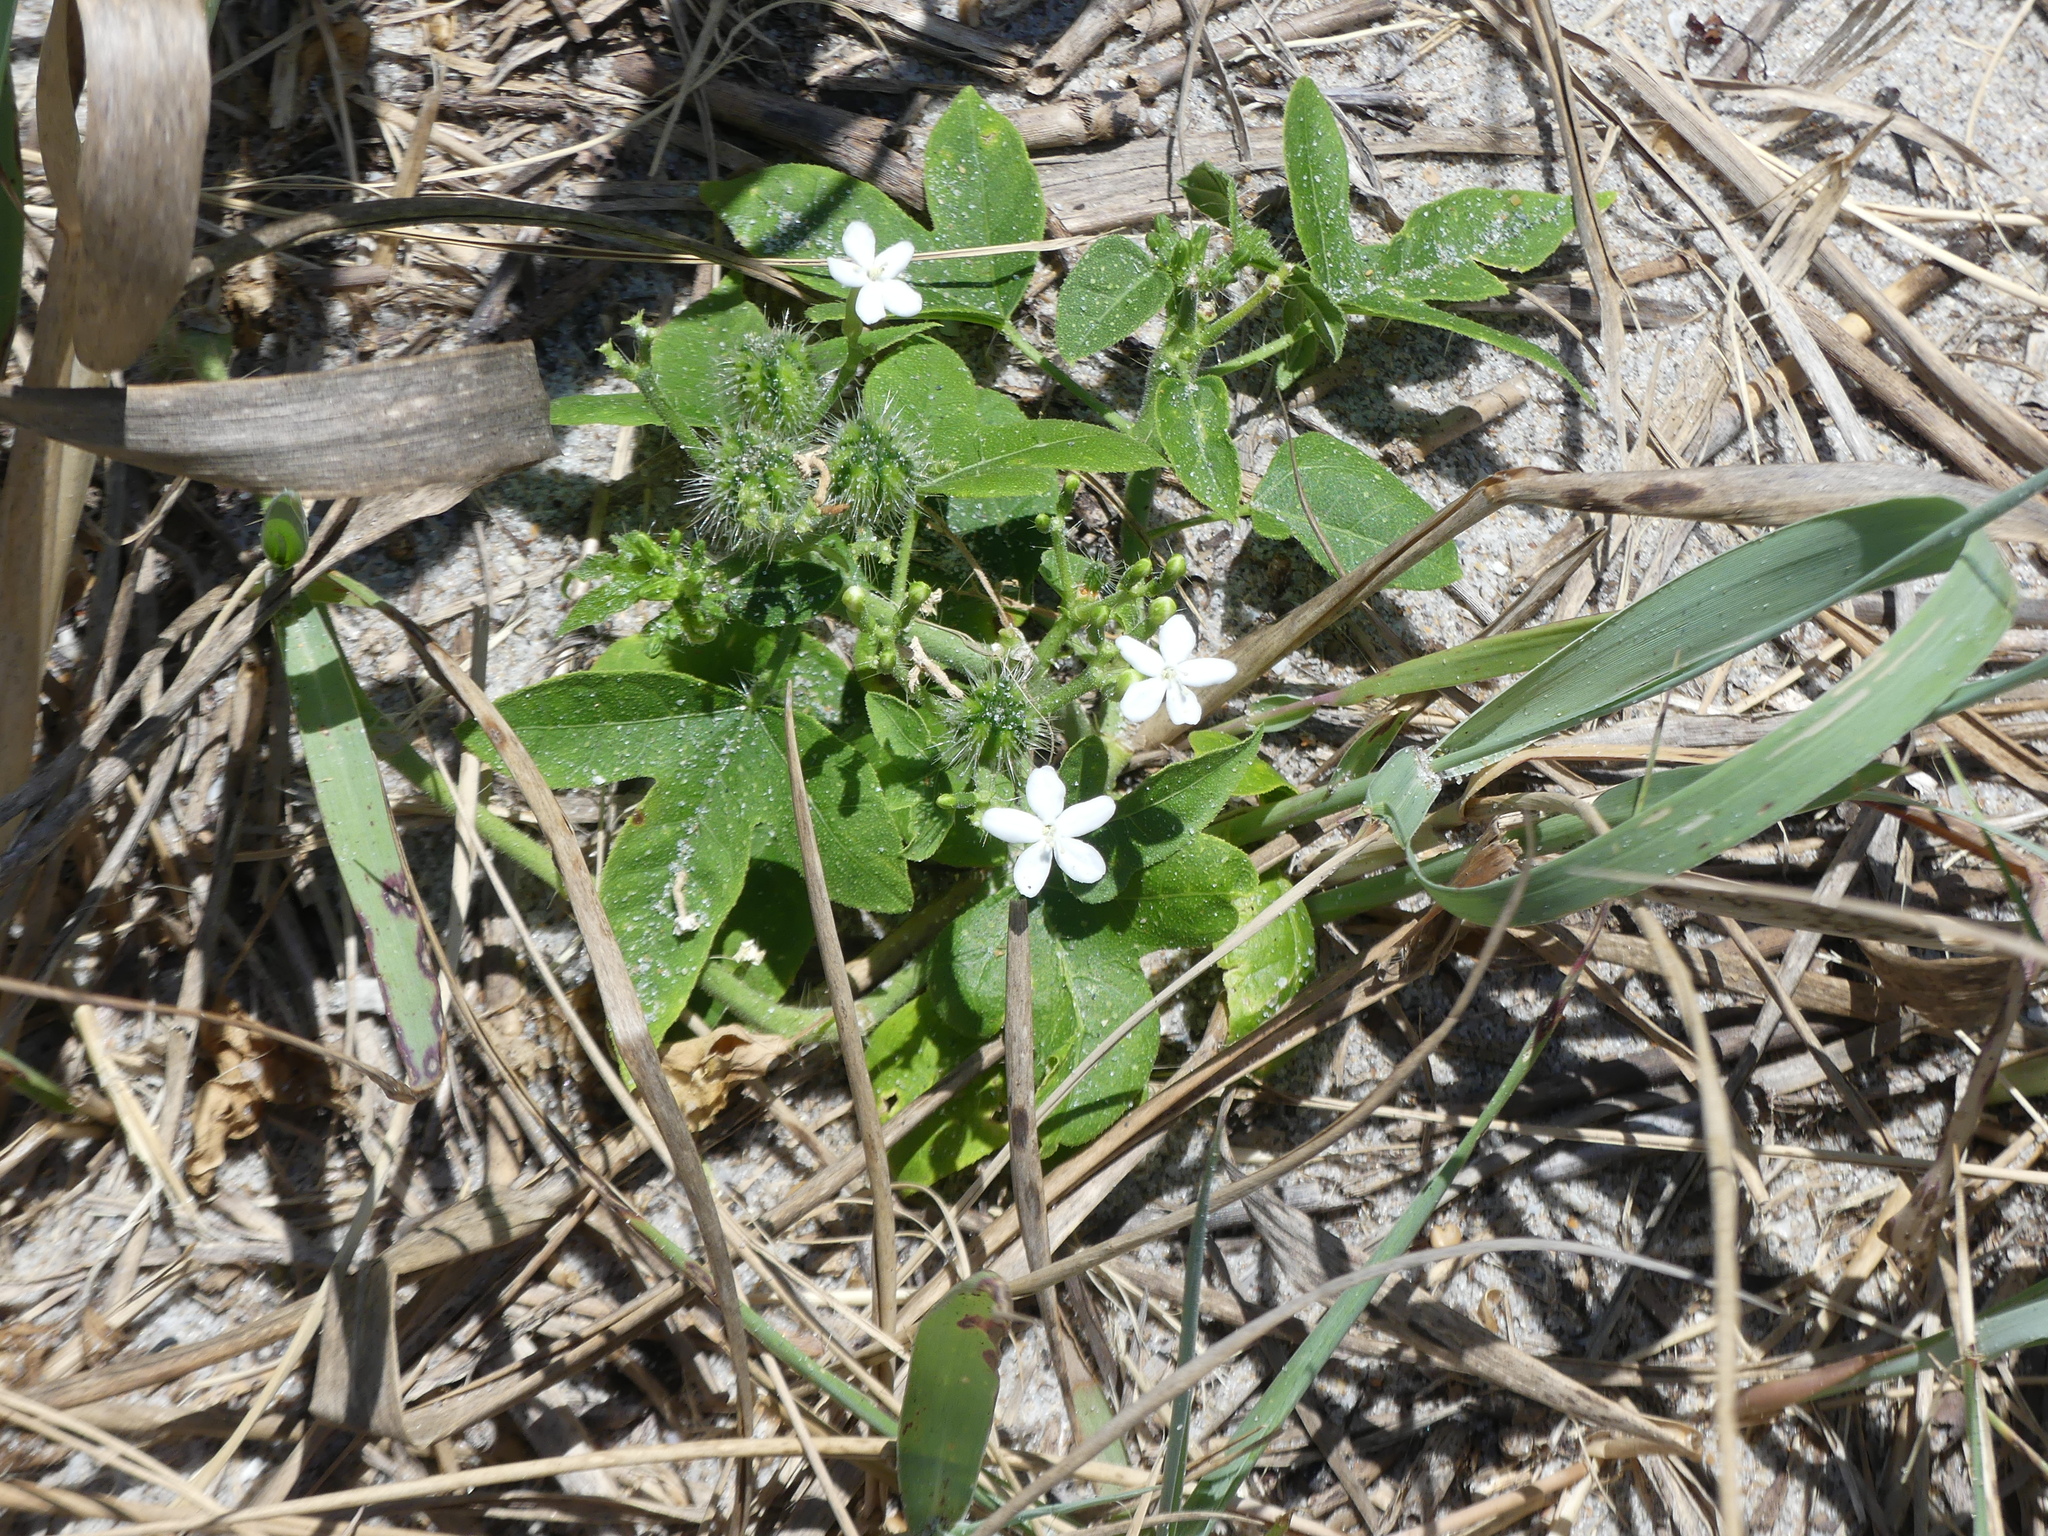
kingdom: Plantae
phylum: Tracheophyta
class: Magnoliopsida
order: Malpighiales
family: Euphorbiaceae
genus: Cnidoscolus
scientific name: Cnidoscolus stimulosus
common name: Bull-nettle
